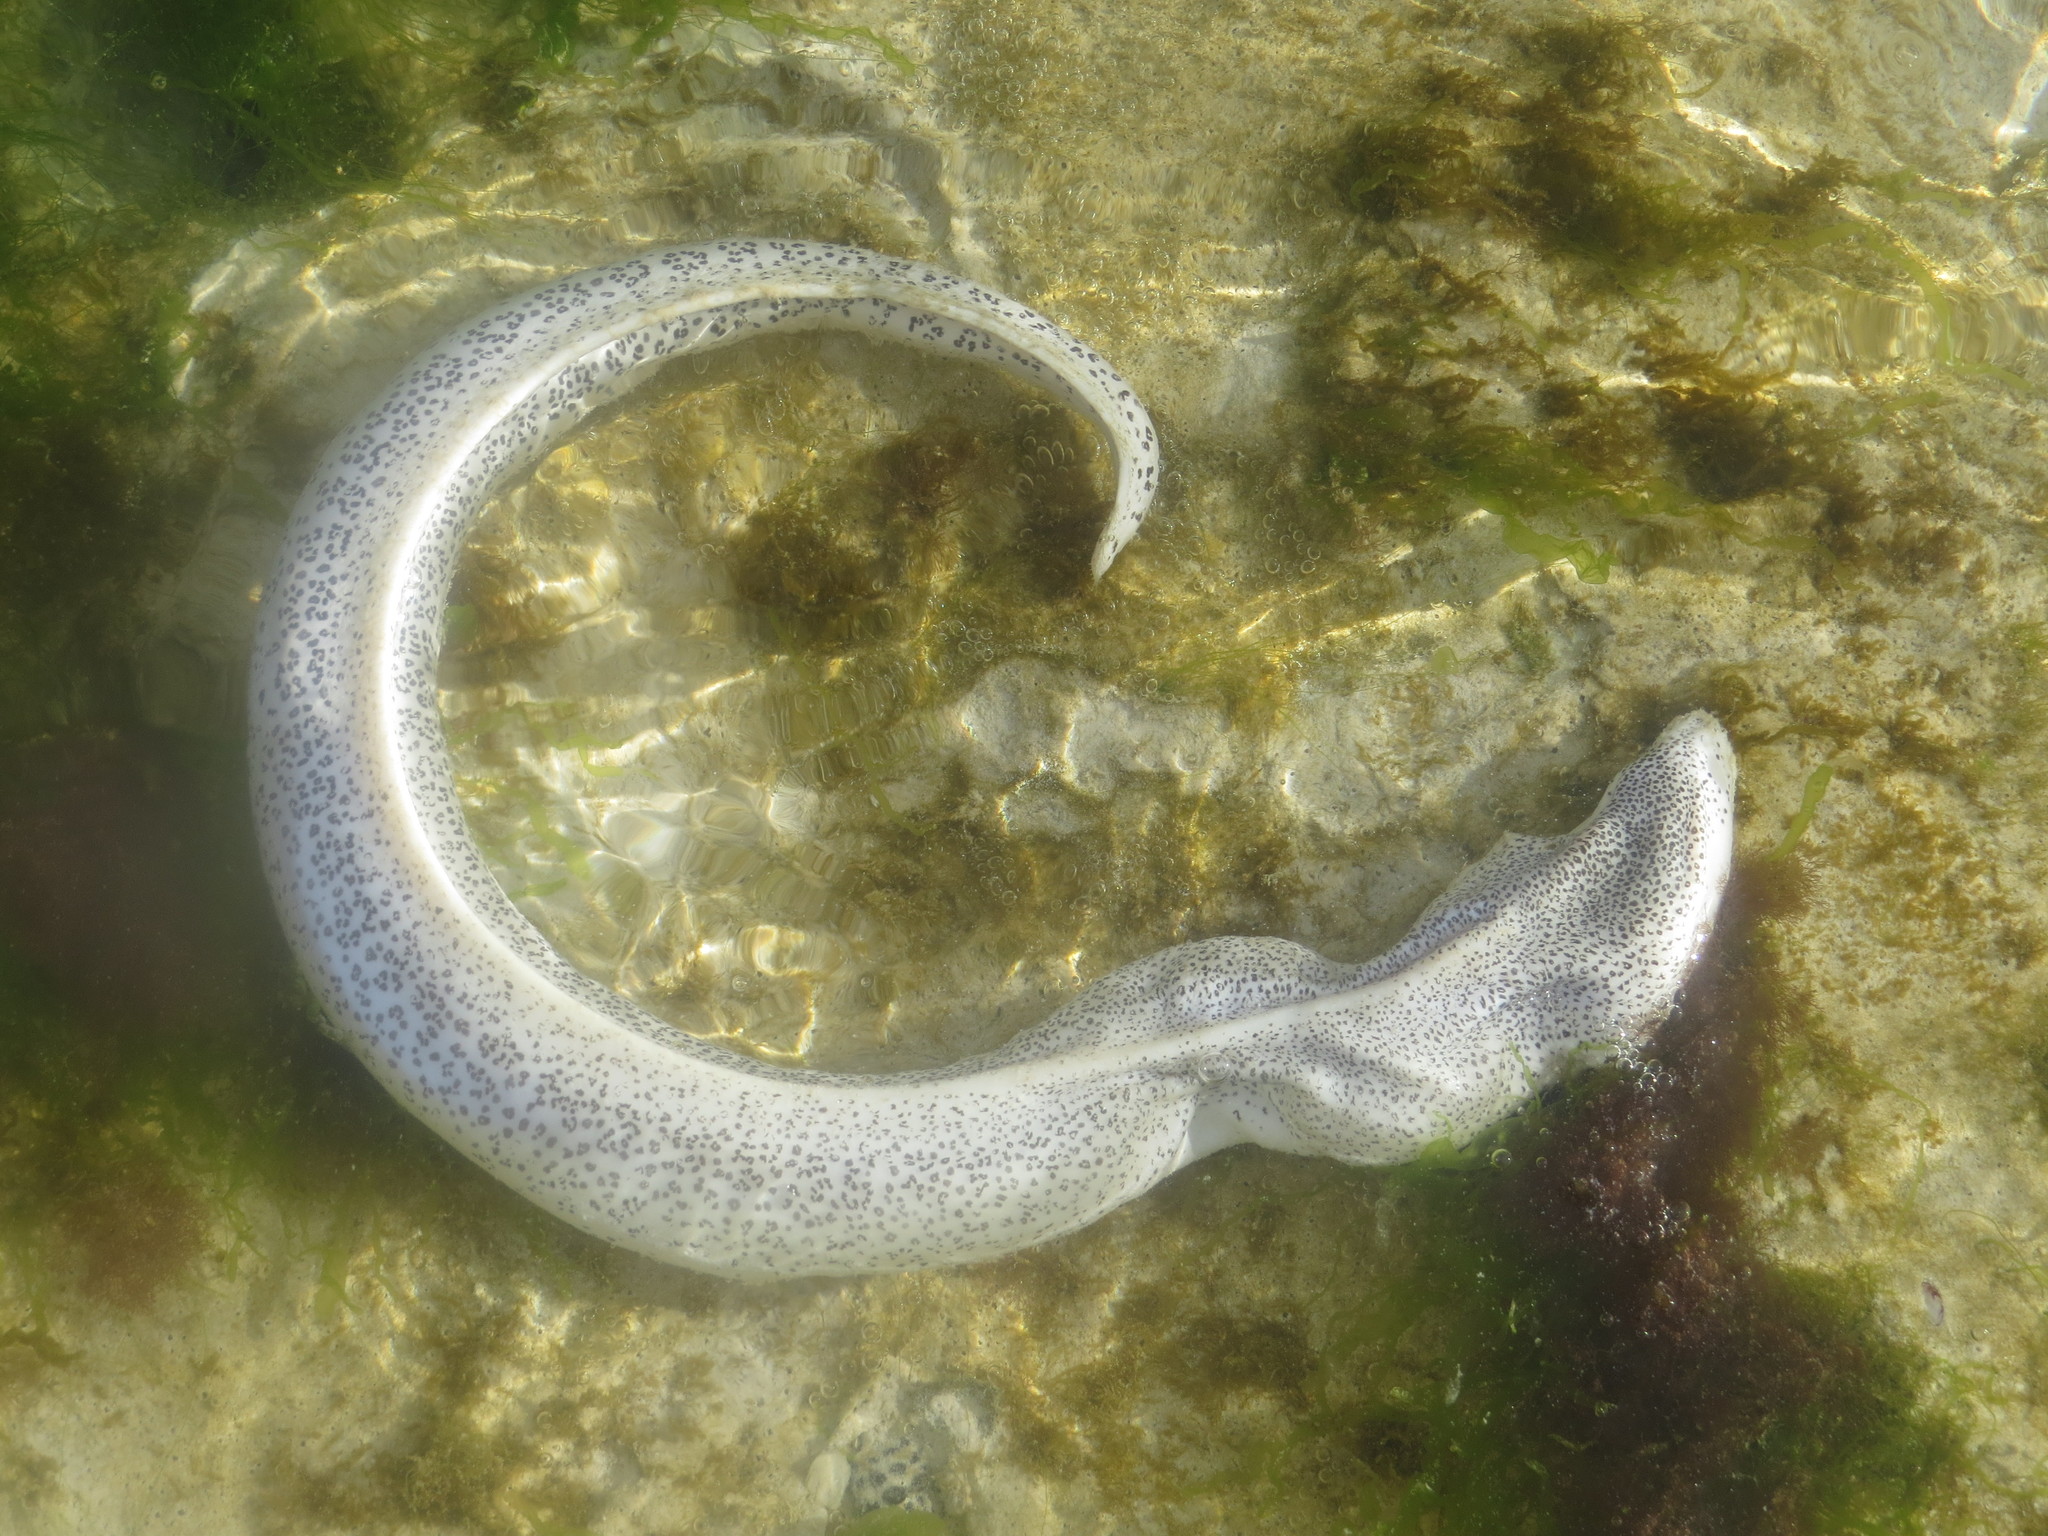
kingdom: Animalia
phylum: Chordata
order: Anguilliformes
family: Muraenidae
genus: Gymnothorax
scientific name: Gymnothorax pictus
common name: Peppered moray
